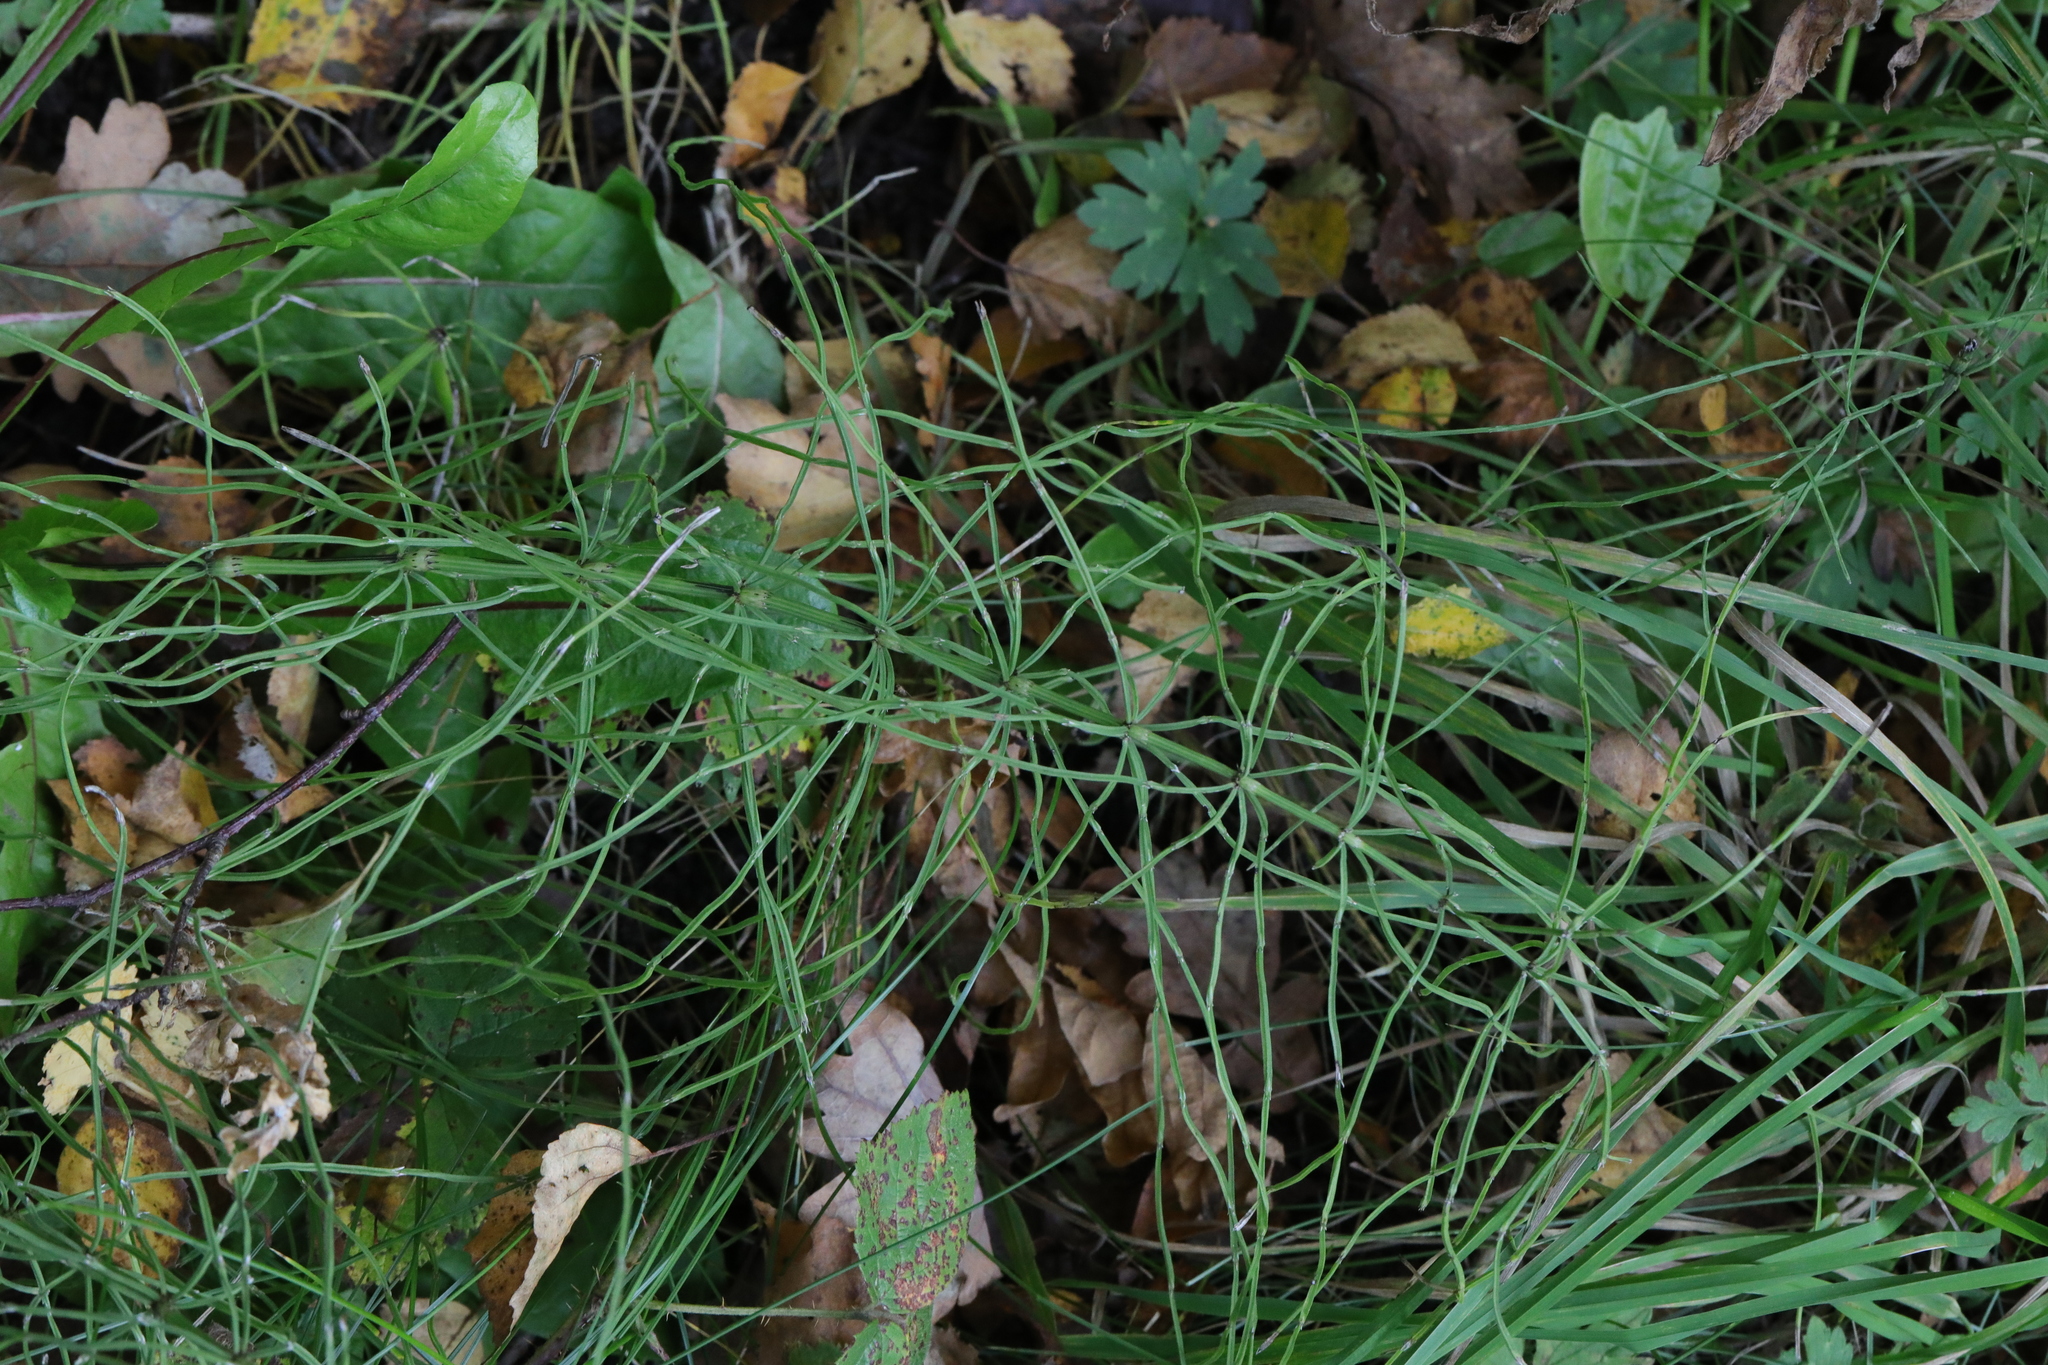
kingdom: Plantae
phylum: Tracheophyta
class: Polypodiopsida
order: Equisetales
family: Equisetaceae
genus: Equisetum
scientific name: Equisetum arvense
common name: Field horsetail
